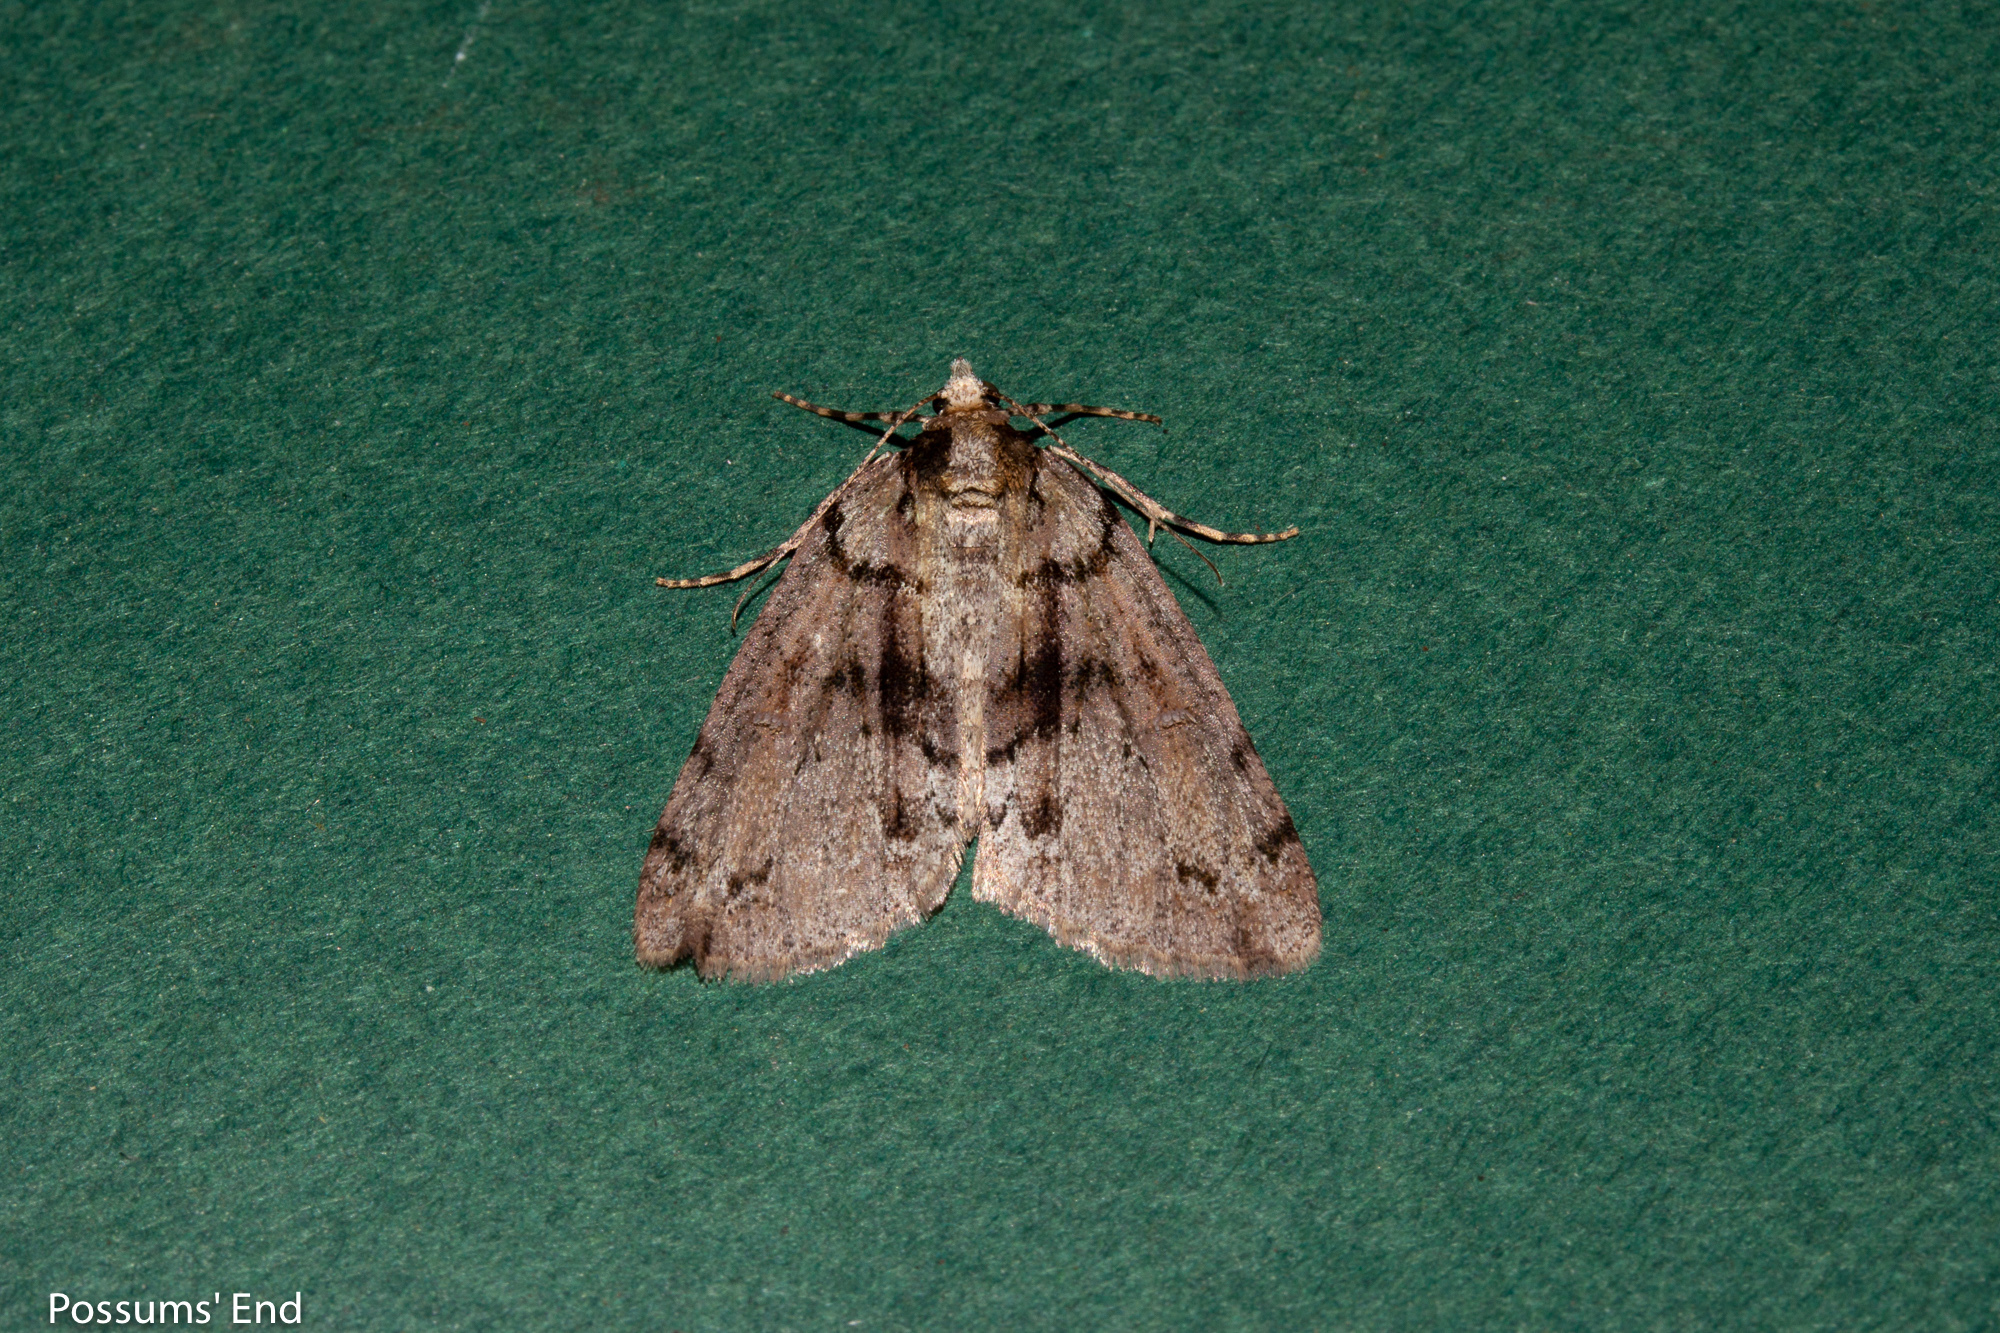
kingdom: Animalia
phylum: Arthropoda
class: Insecta
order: Lepidoptera
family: Geometridae
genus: Pseudocoremia
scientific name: Pseudocoremia suavis
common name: Common forest looper
